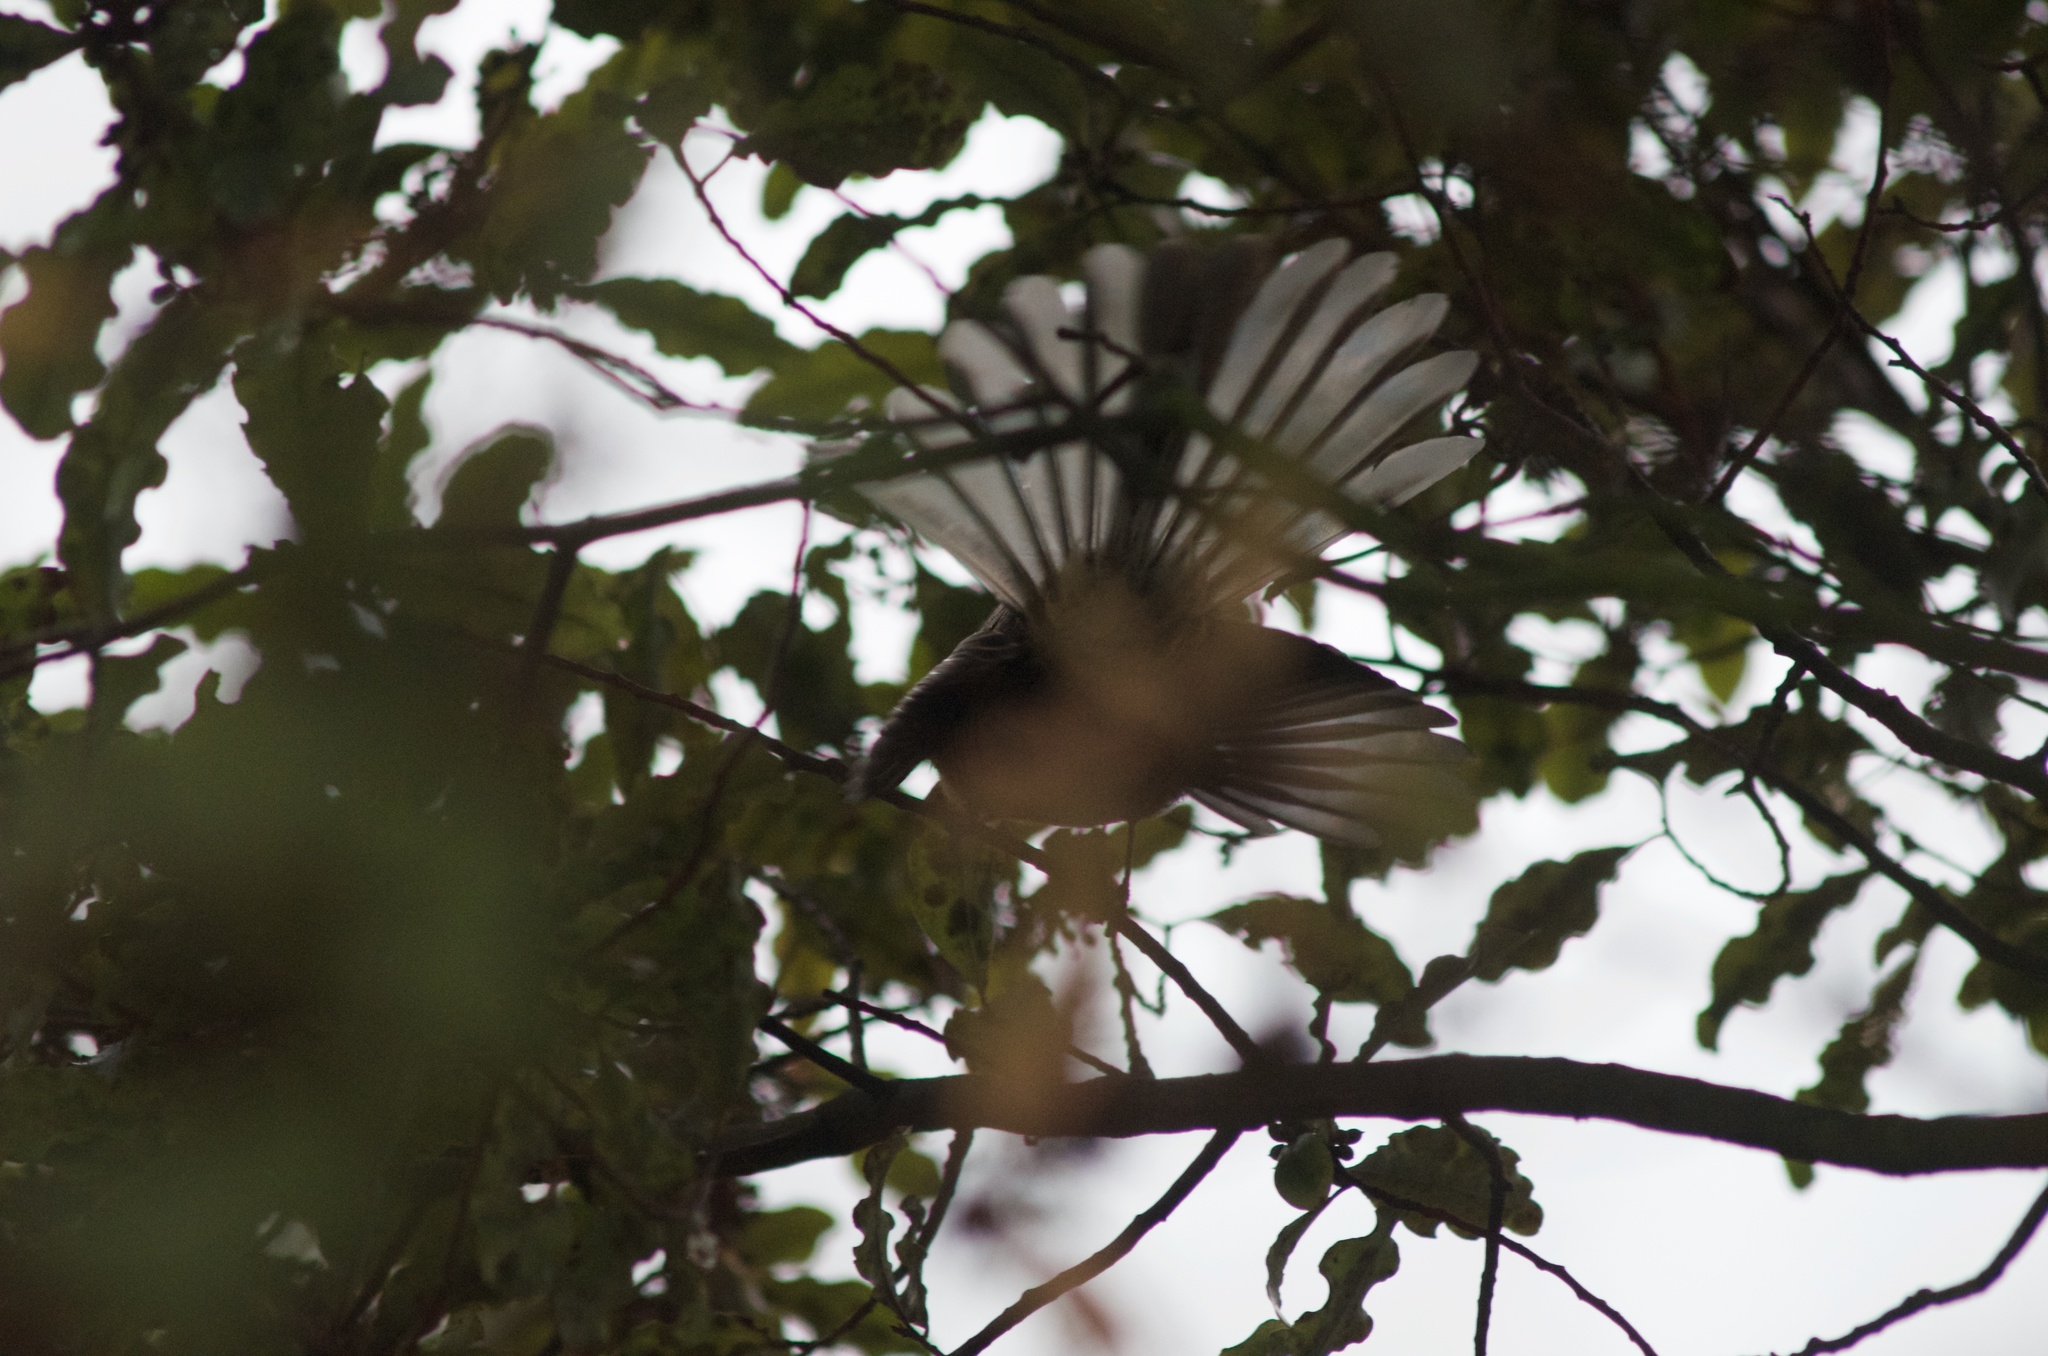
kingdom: Animalia
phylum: Chordata
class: Aves
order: Passeriformes
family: Rhipiduridae
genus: Rhipidura
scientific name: Rhipidura fuliginosa
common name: New zealand fantail
